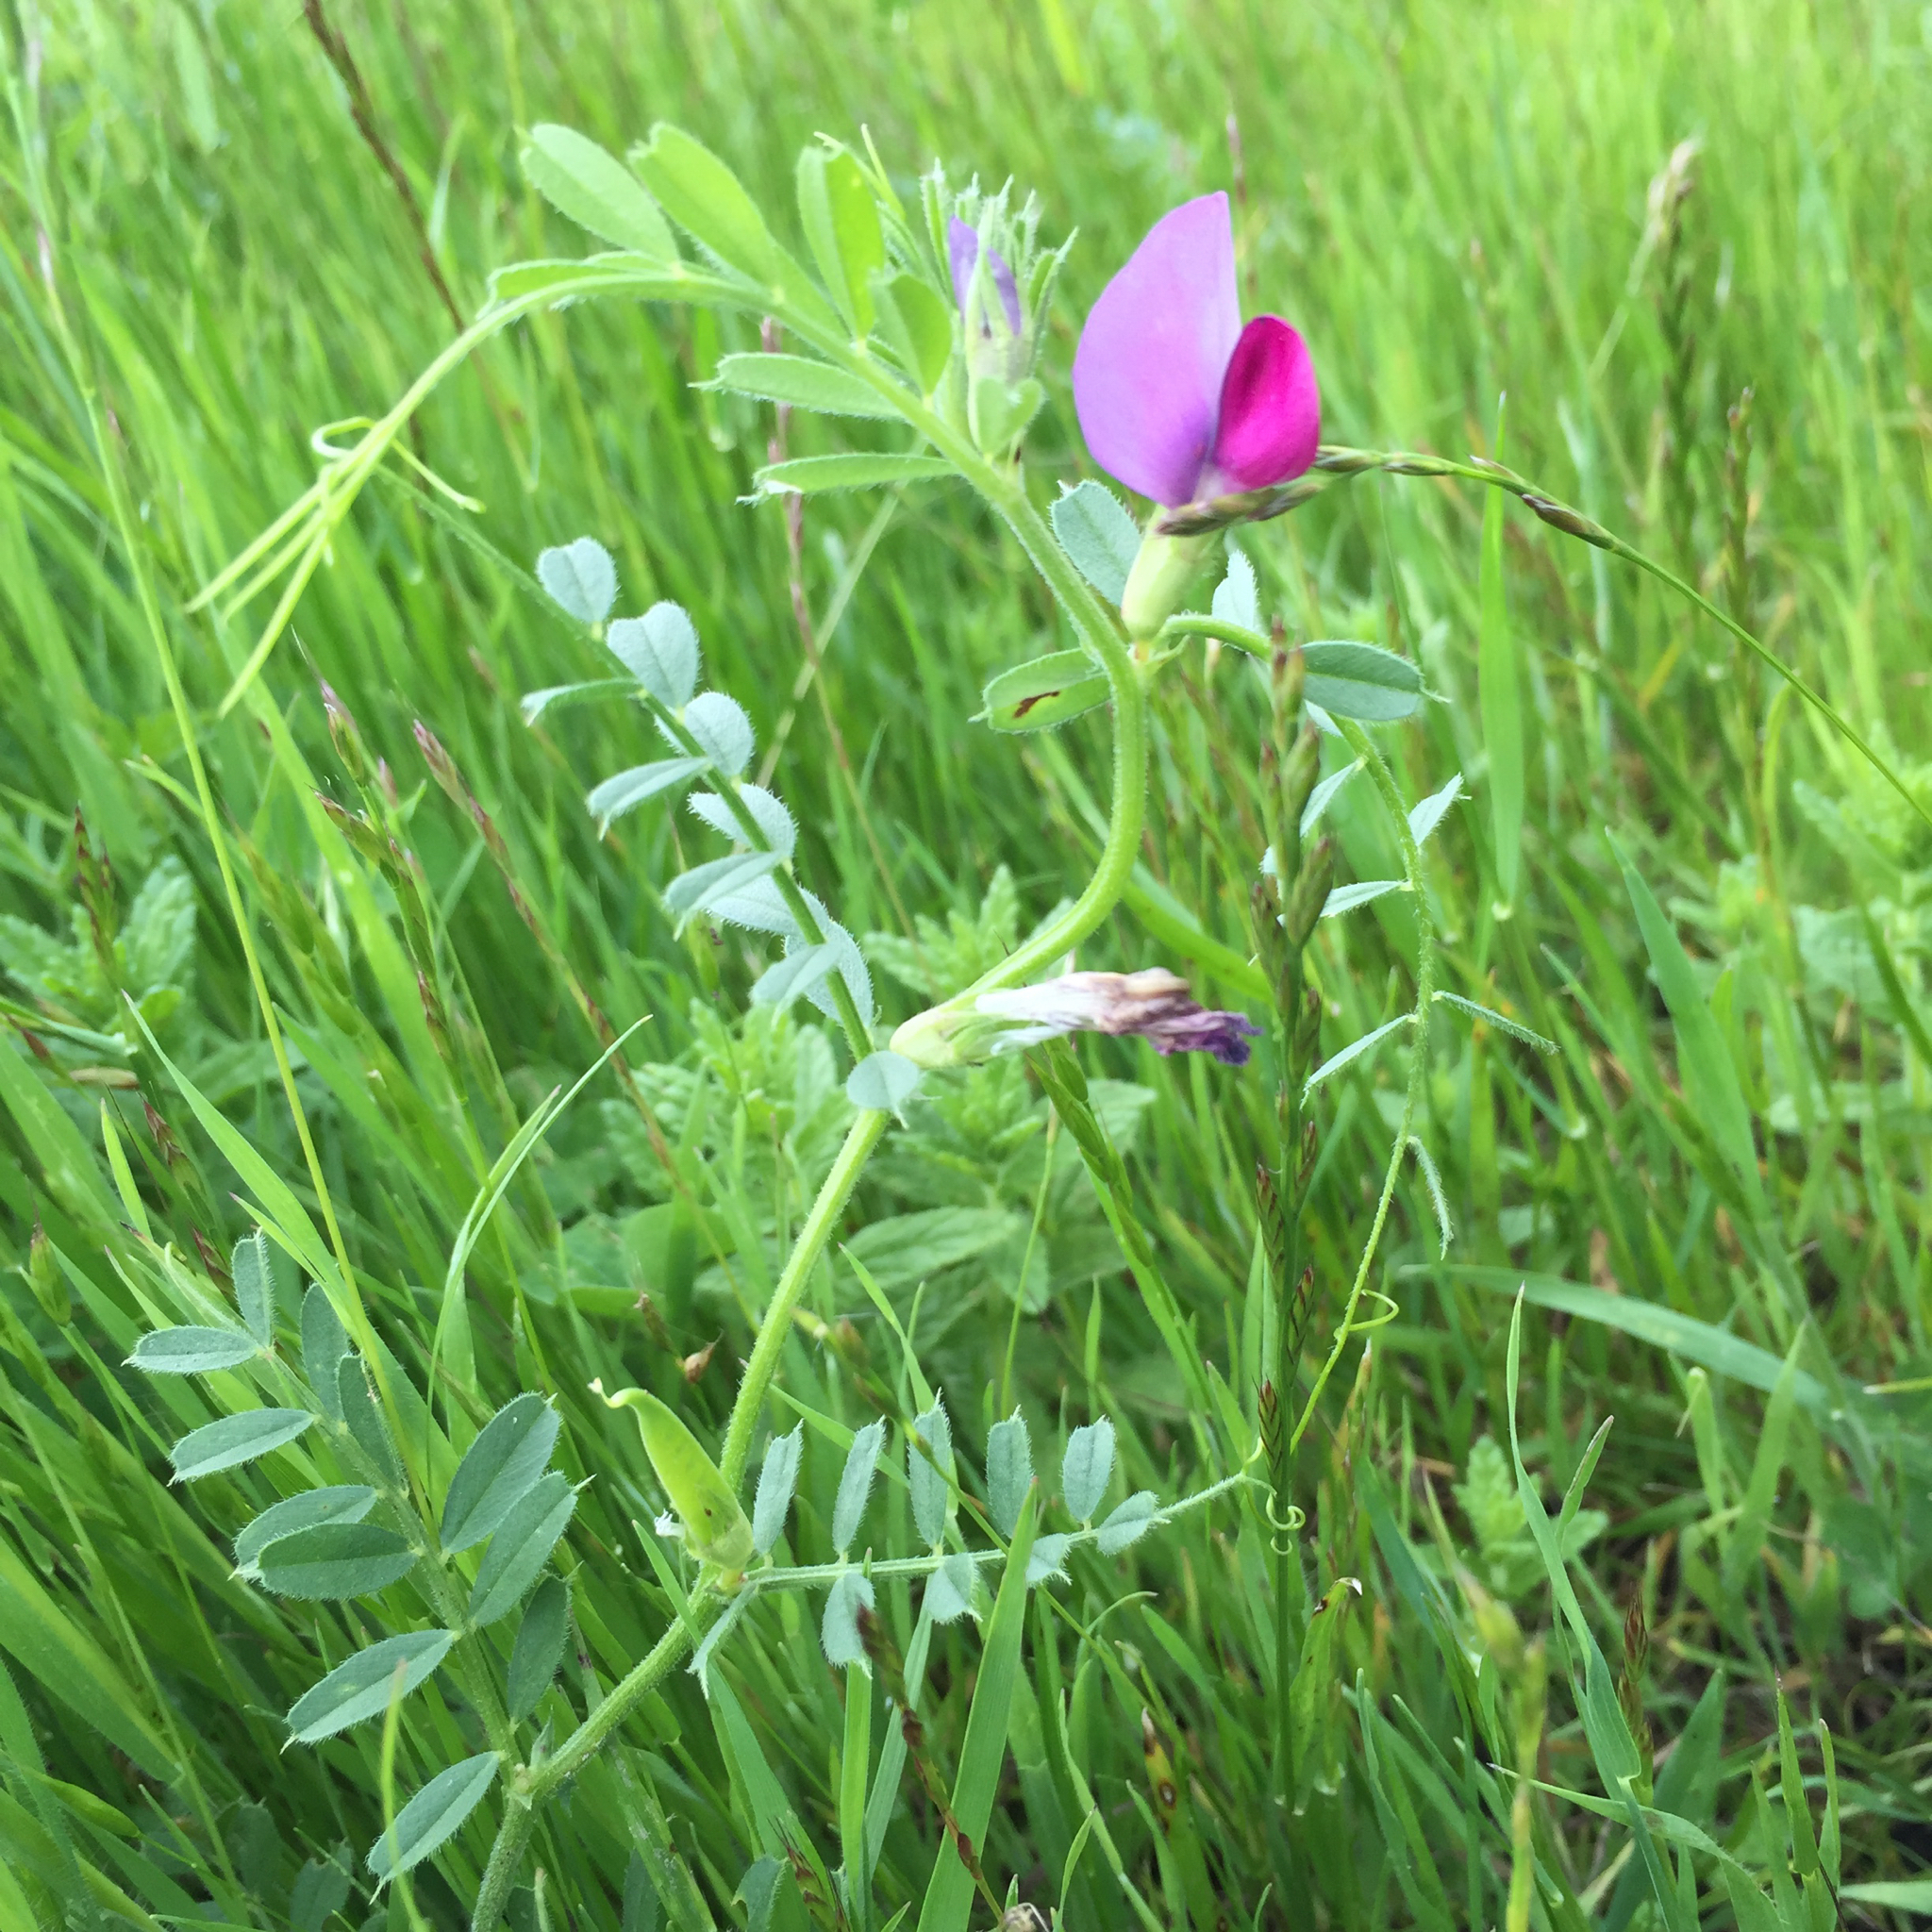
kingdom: Plantae
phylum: Tracheophyta
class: Magnoliopsida
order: Fabales
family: Fabaceae
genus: Vicia
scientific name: Vicia sativa
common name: Garden vetch
